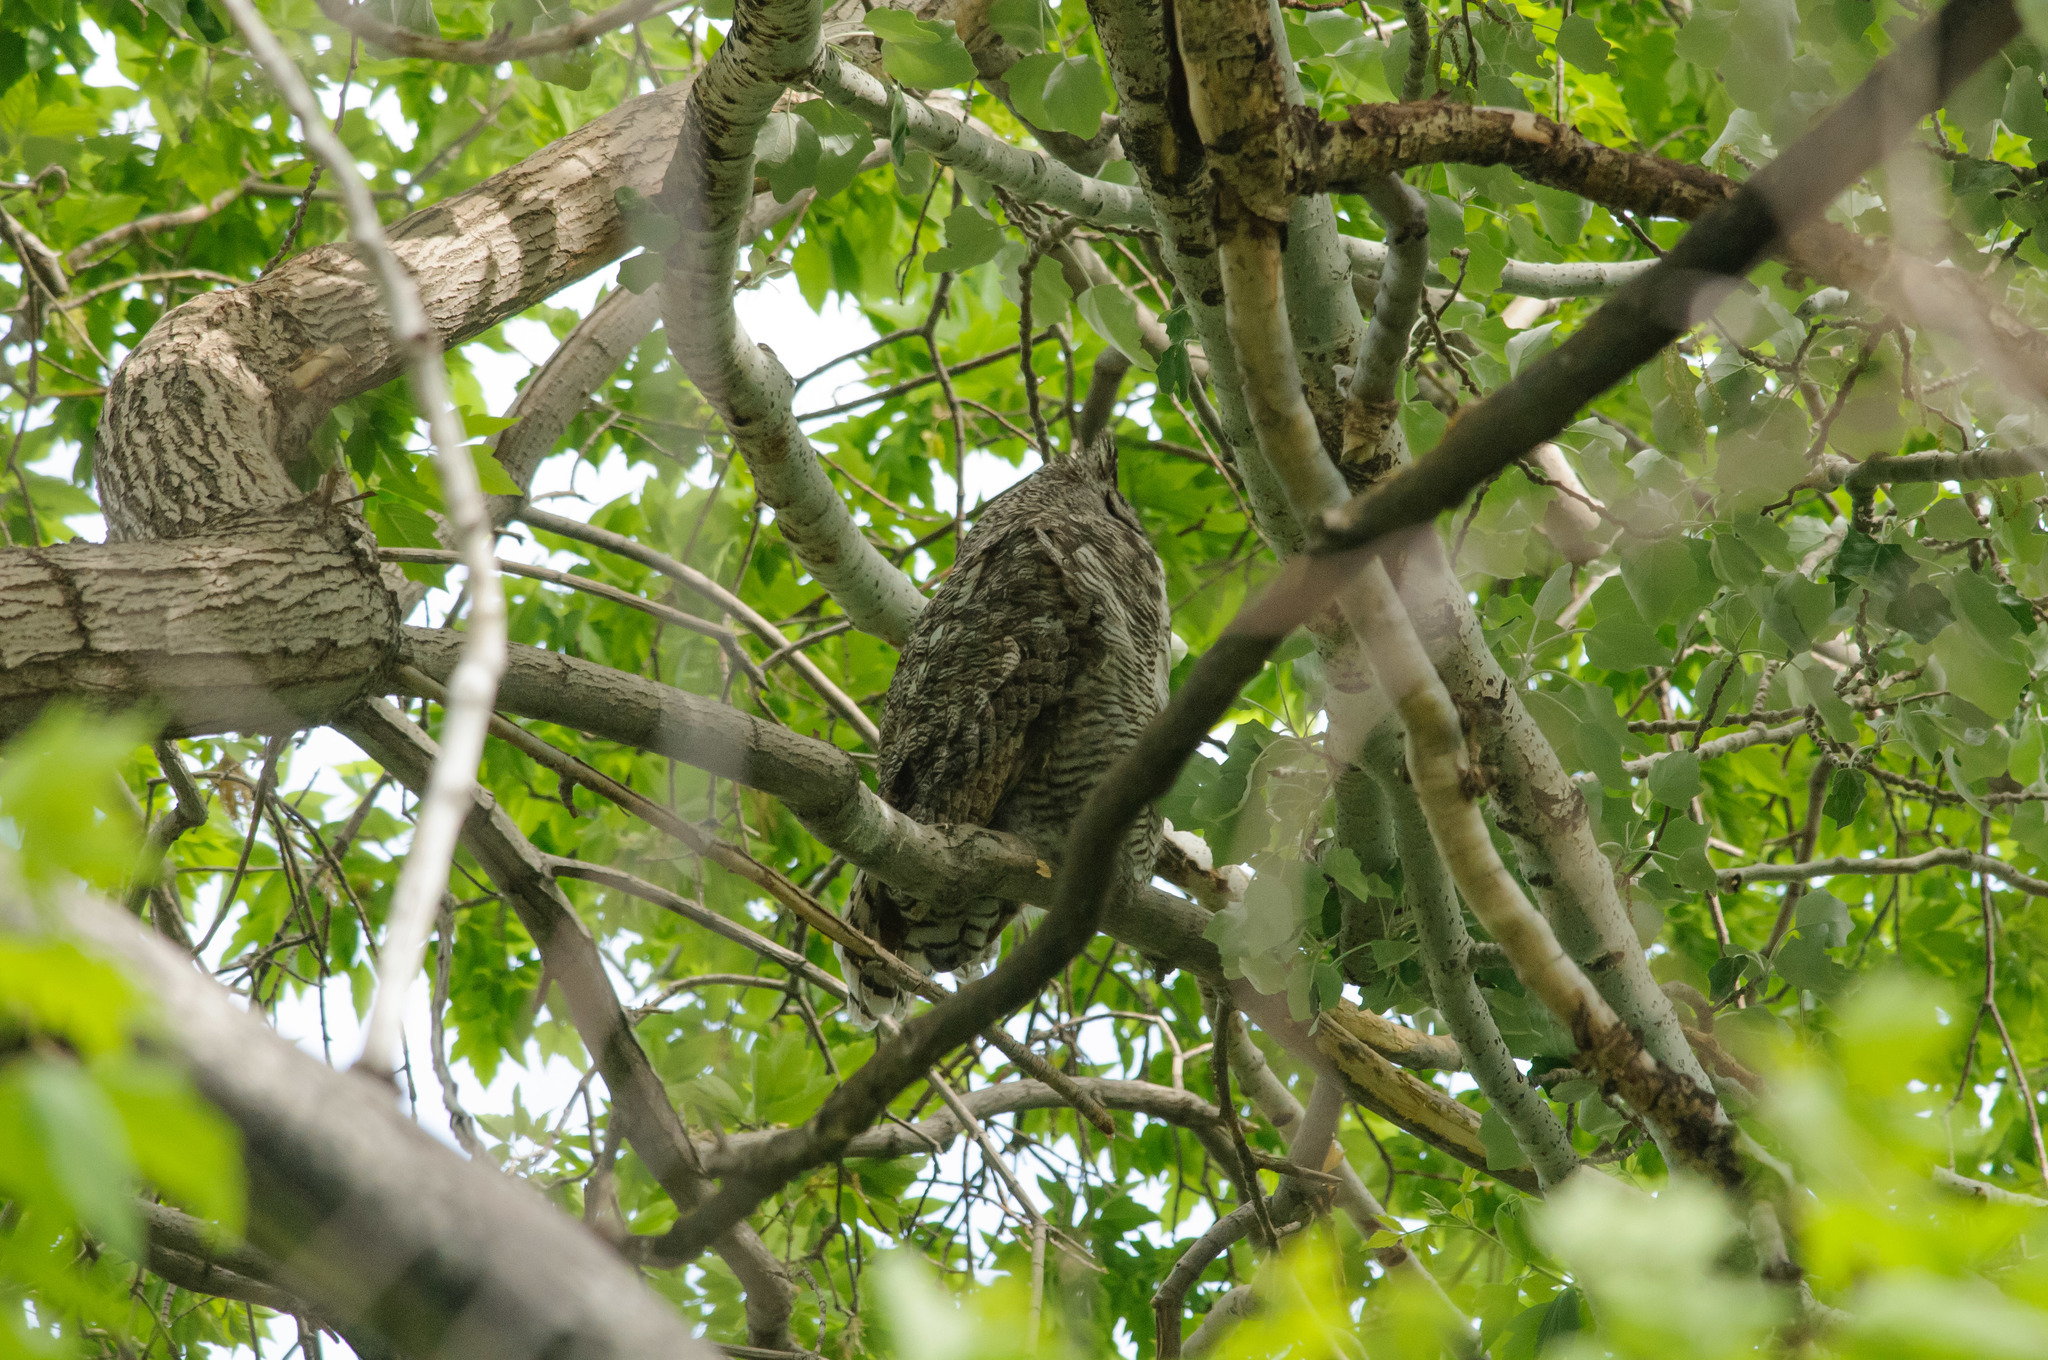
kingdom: Animalia
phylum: Chordata
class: Aves
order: Strigiformes
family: Strigidae
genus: Bubo
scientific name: Bubo virginianus
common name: Great horned owl
